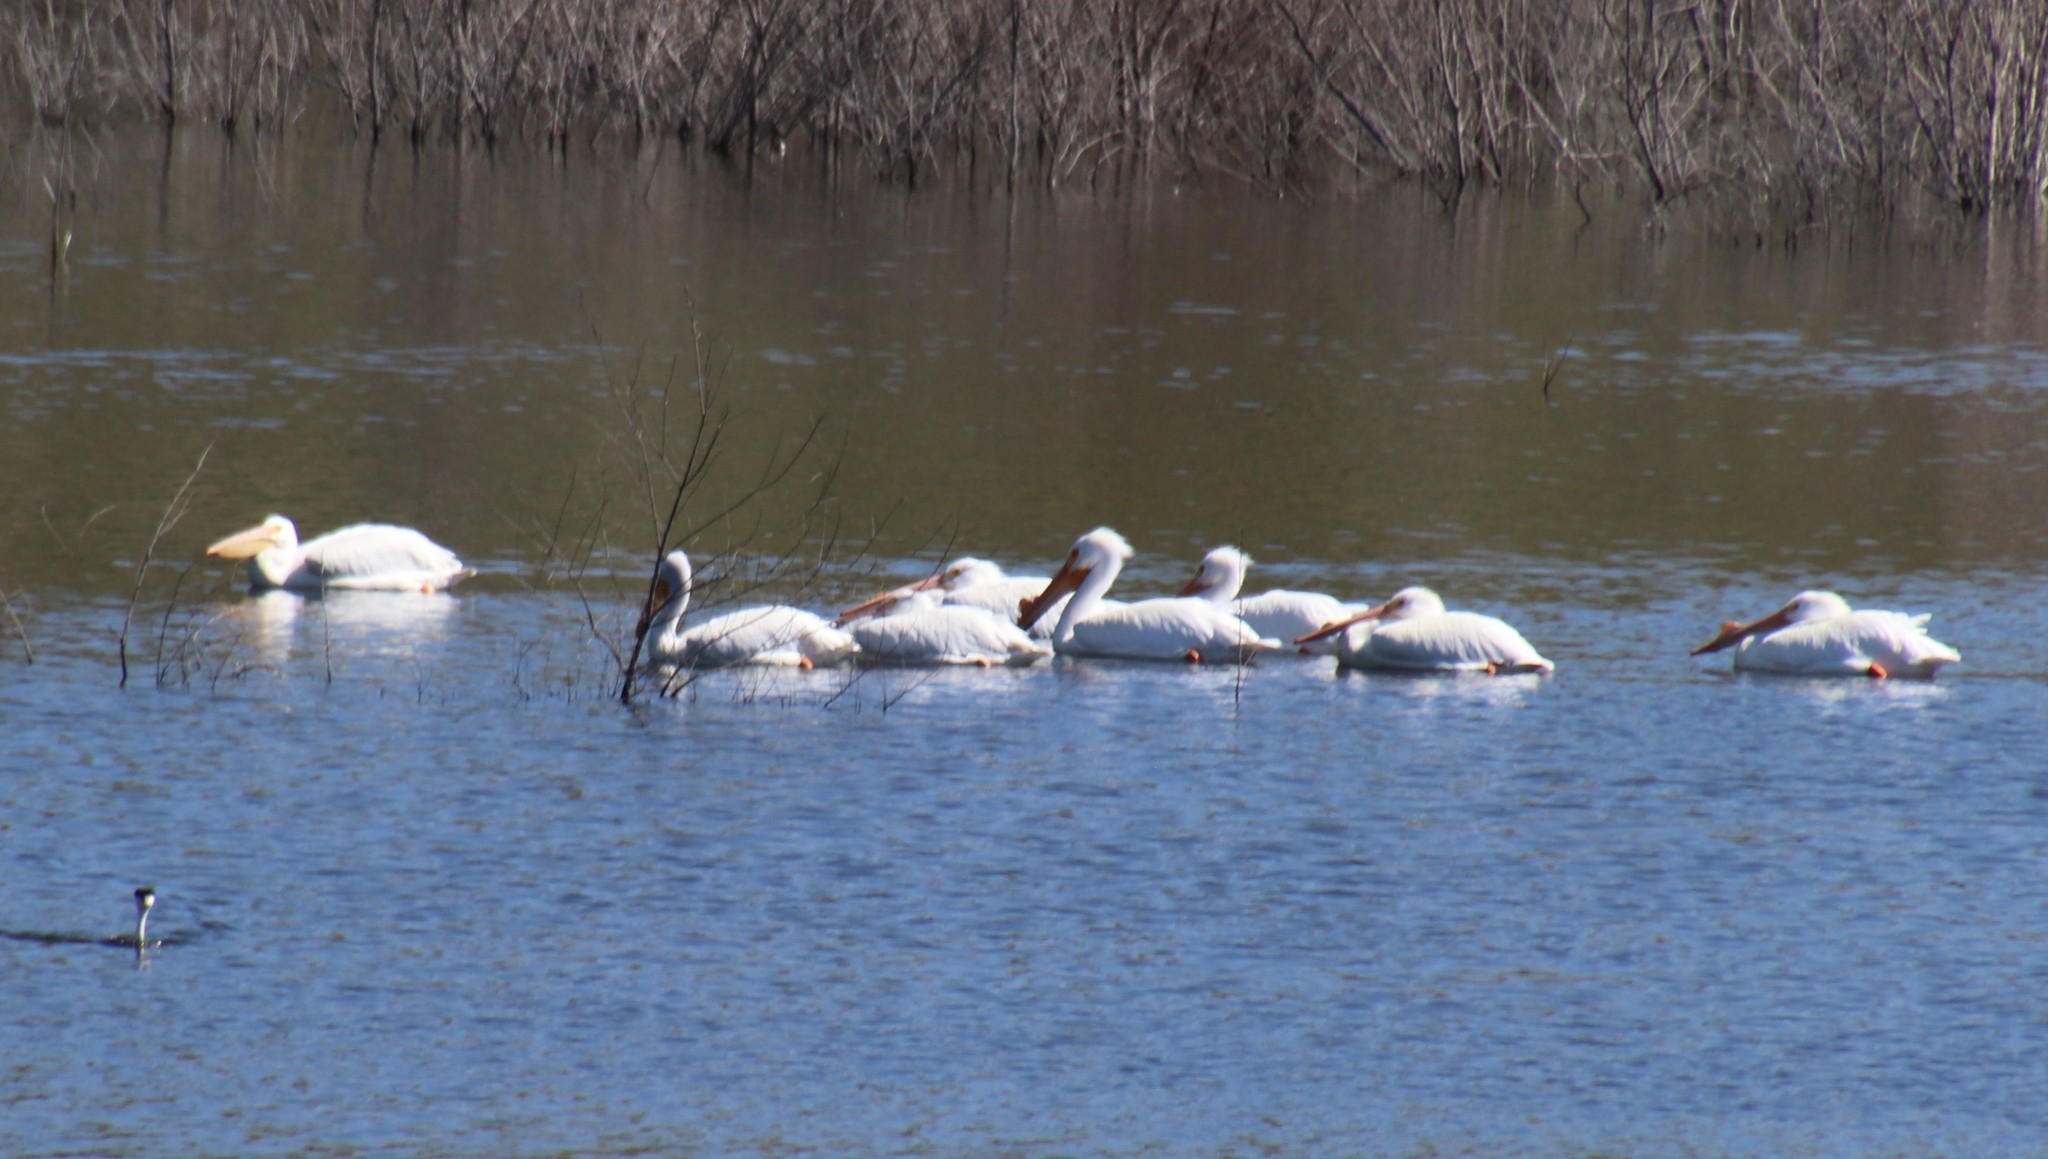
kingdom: Animalia
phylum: Chordata
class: Aves
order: Pelecaniformes
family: Pelecanidae
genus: Pelecanus
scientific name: Pelecanus erythrorhynchos
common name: American white pelican
